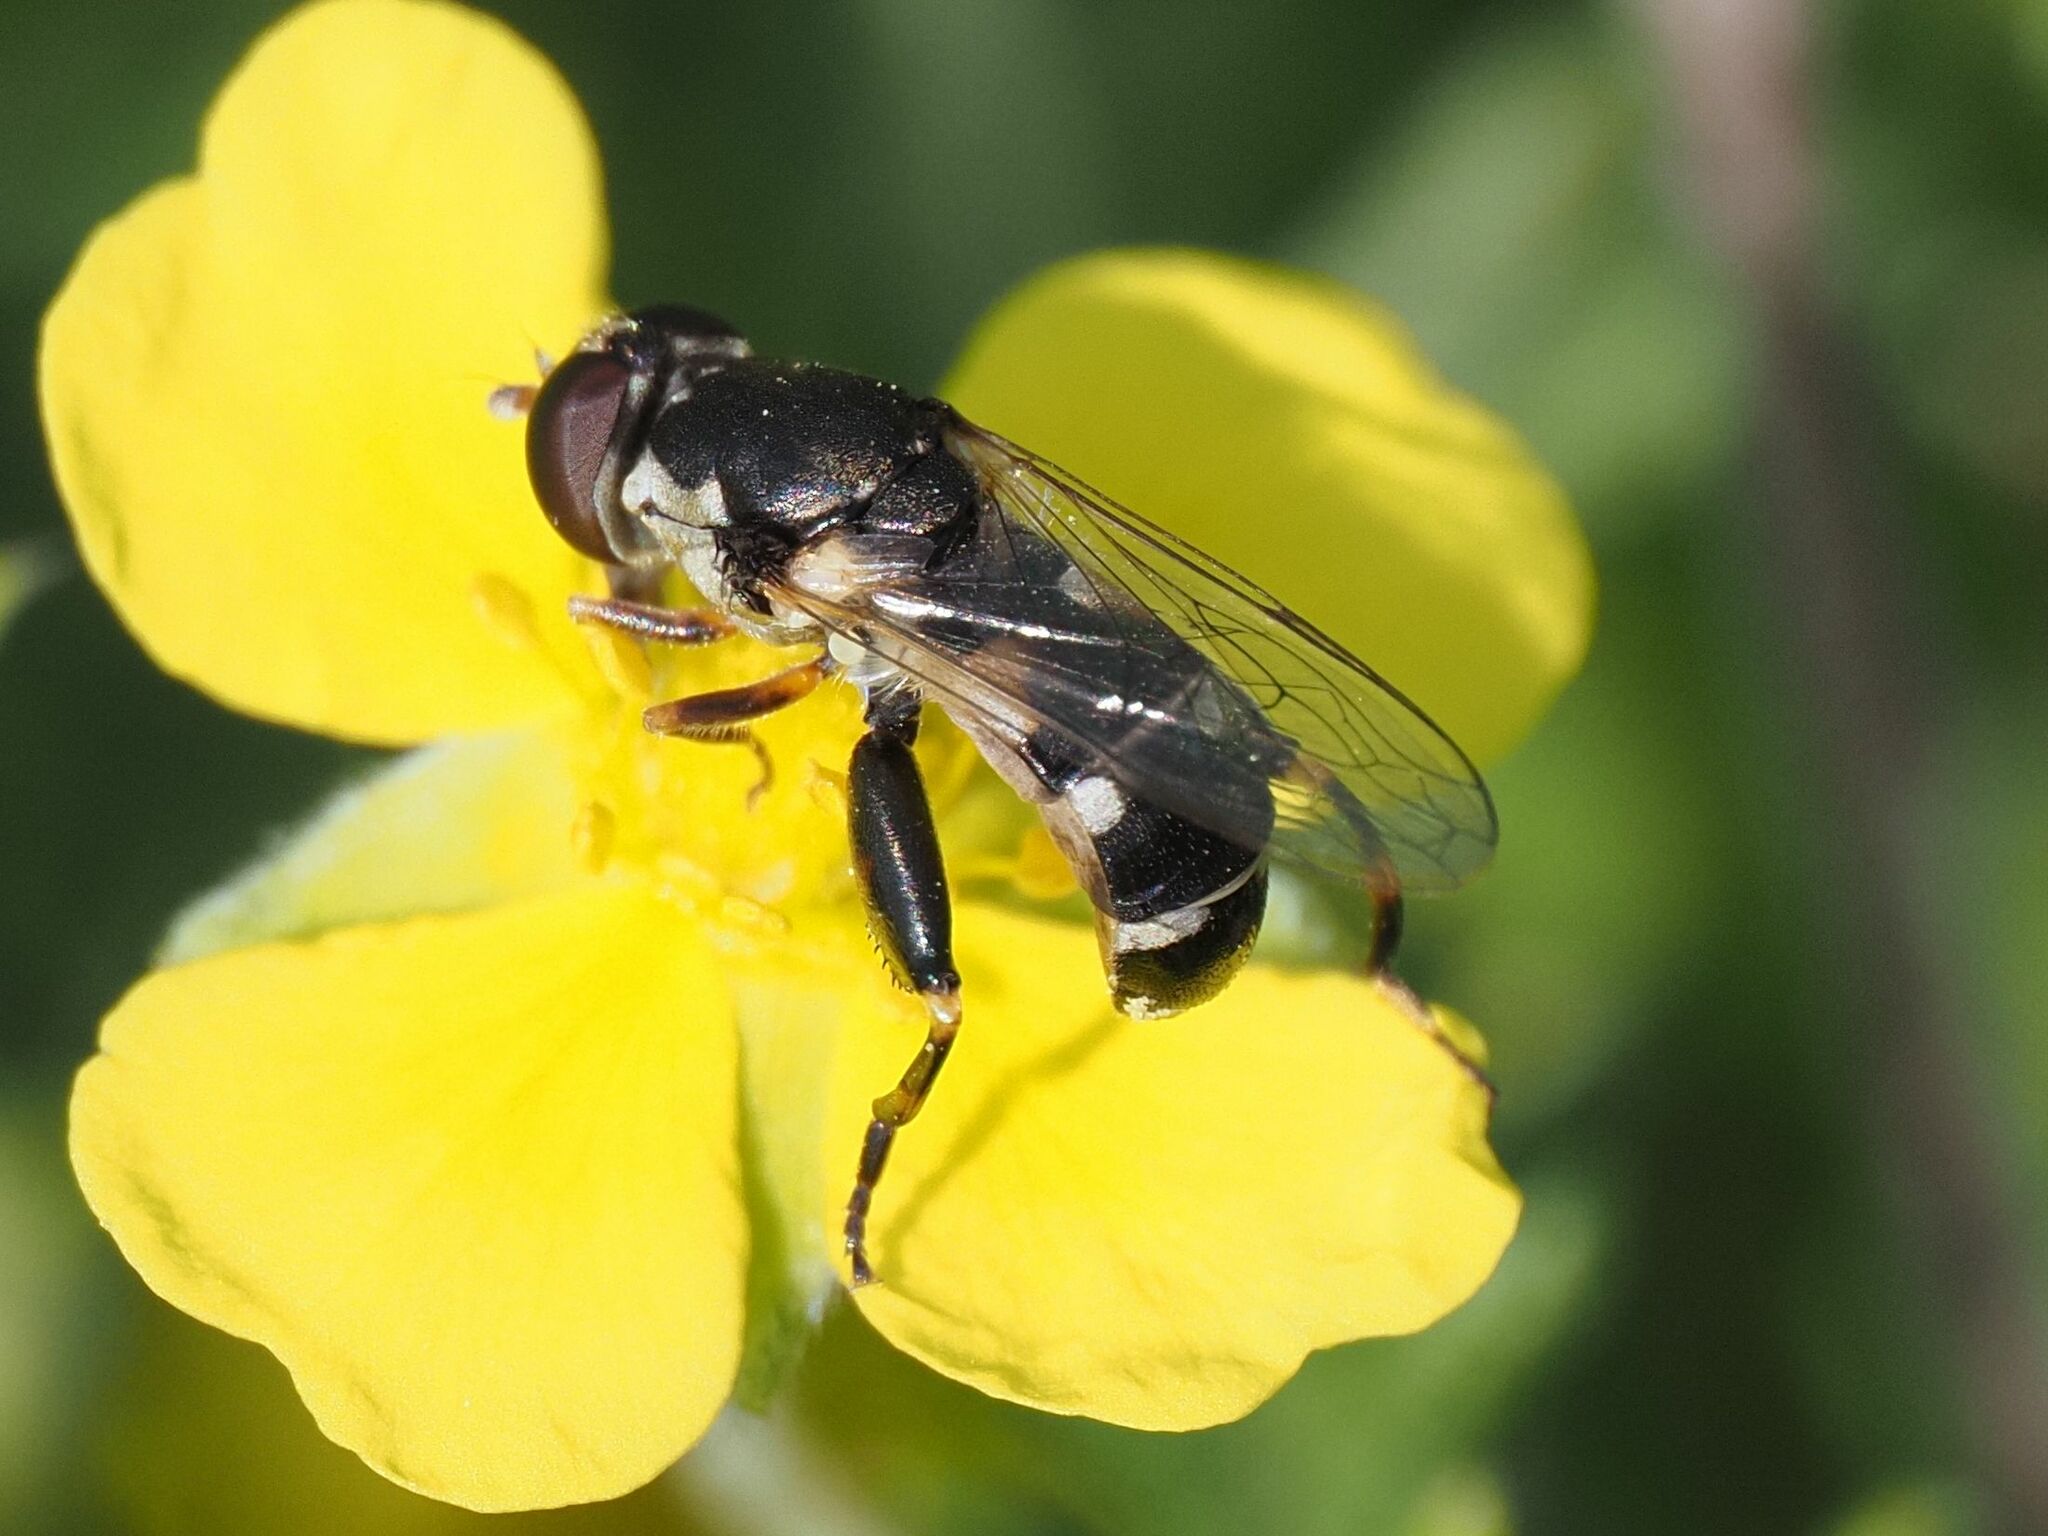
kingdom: Animalia
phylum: Arthropoda
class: Insecta
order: Diptera
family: Syrphidae
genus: Syritta
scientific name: Syritta pipiens
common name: Hover fly
